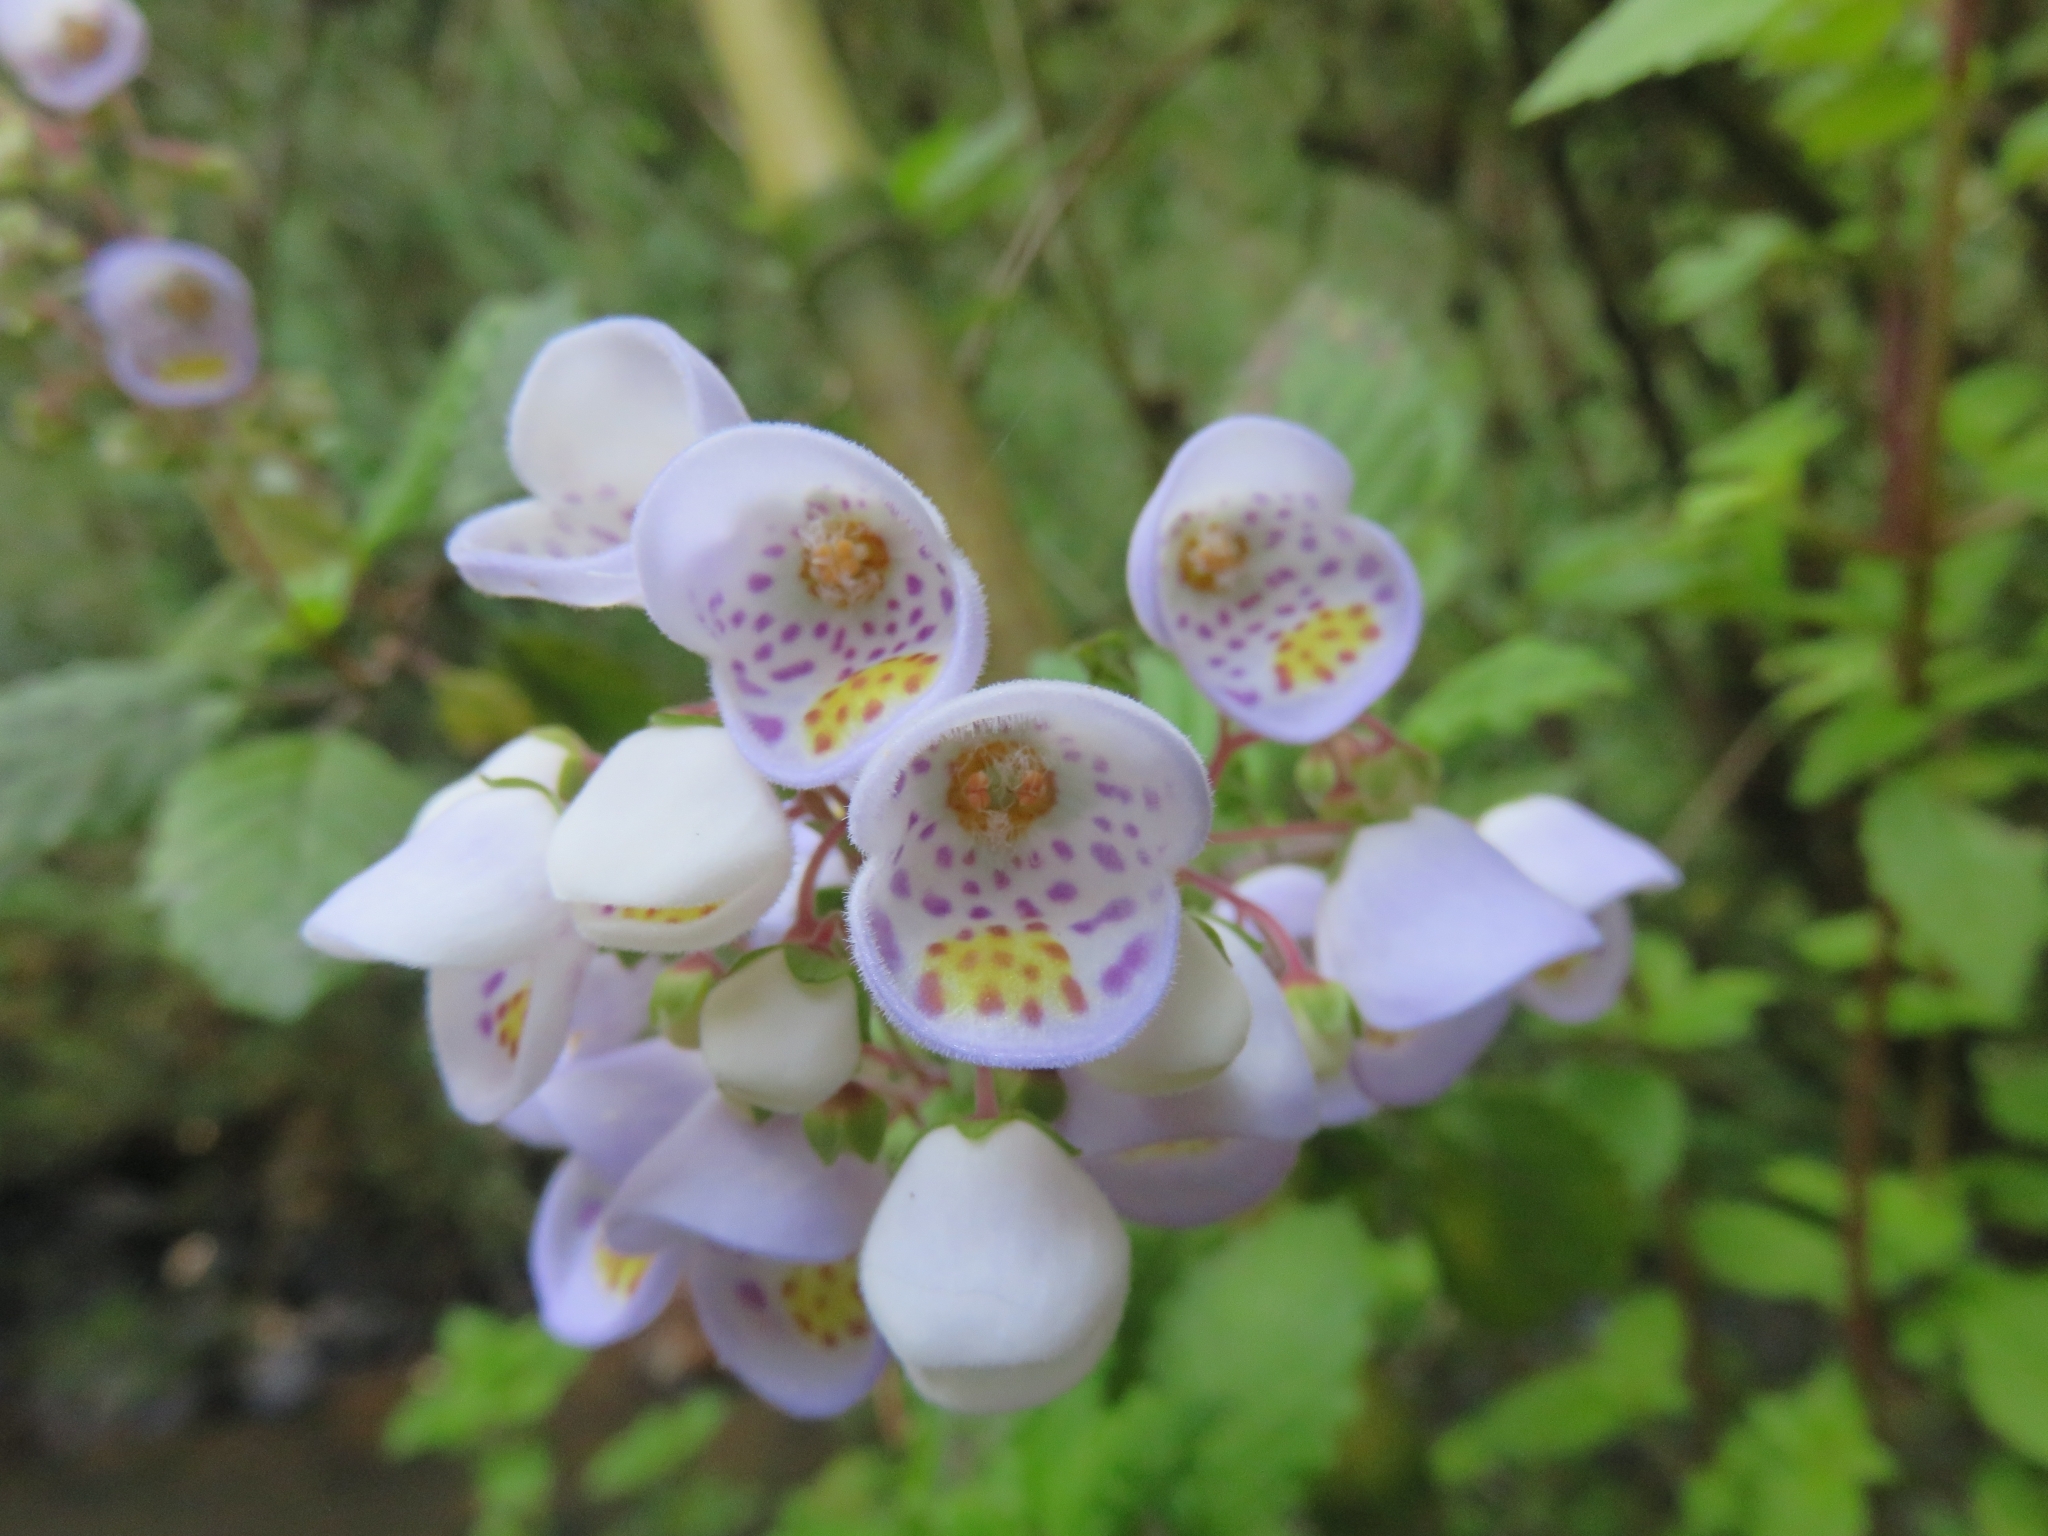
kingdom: Plantae
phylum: Tracheophyta
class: Magnoliopsida
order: Lamiales
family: Calceolariaceae
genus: Jovellana
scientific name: Jovellana punctata
